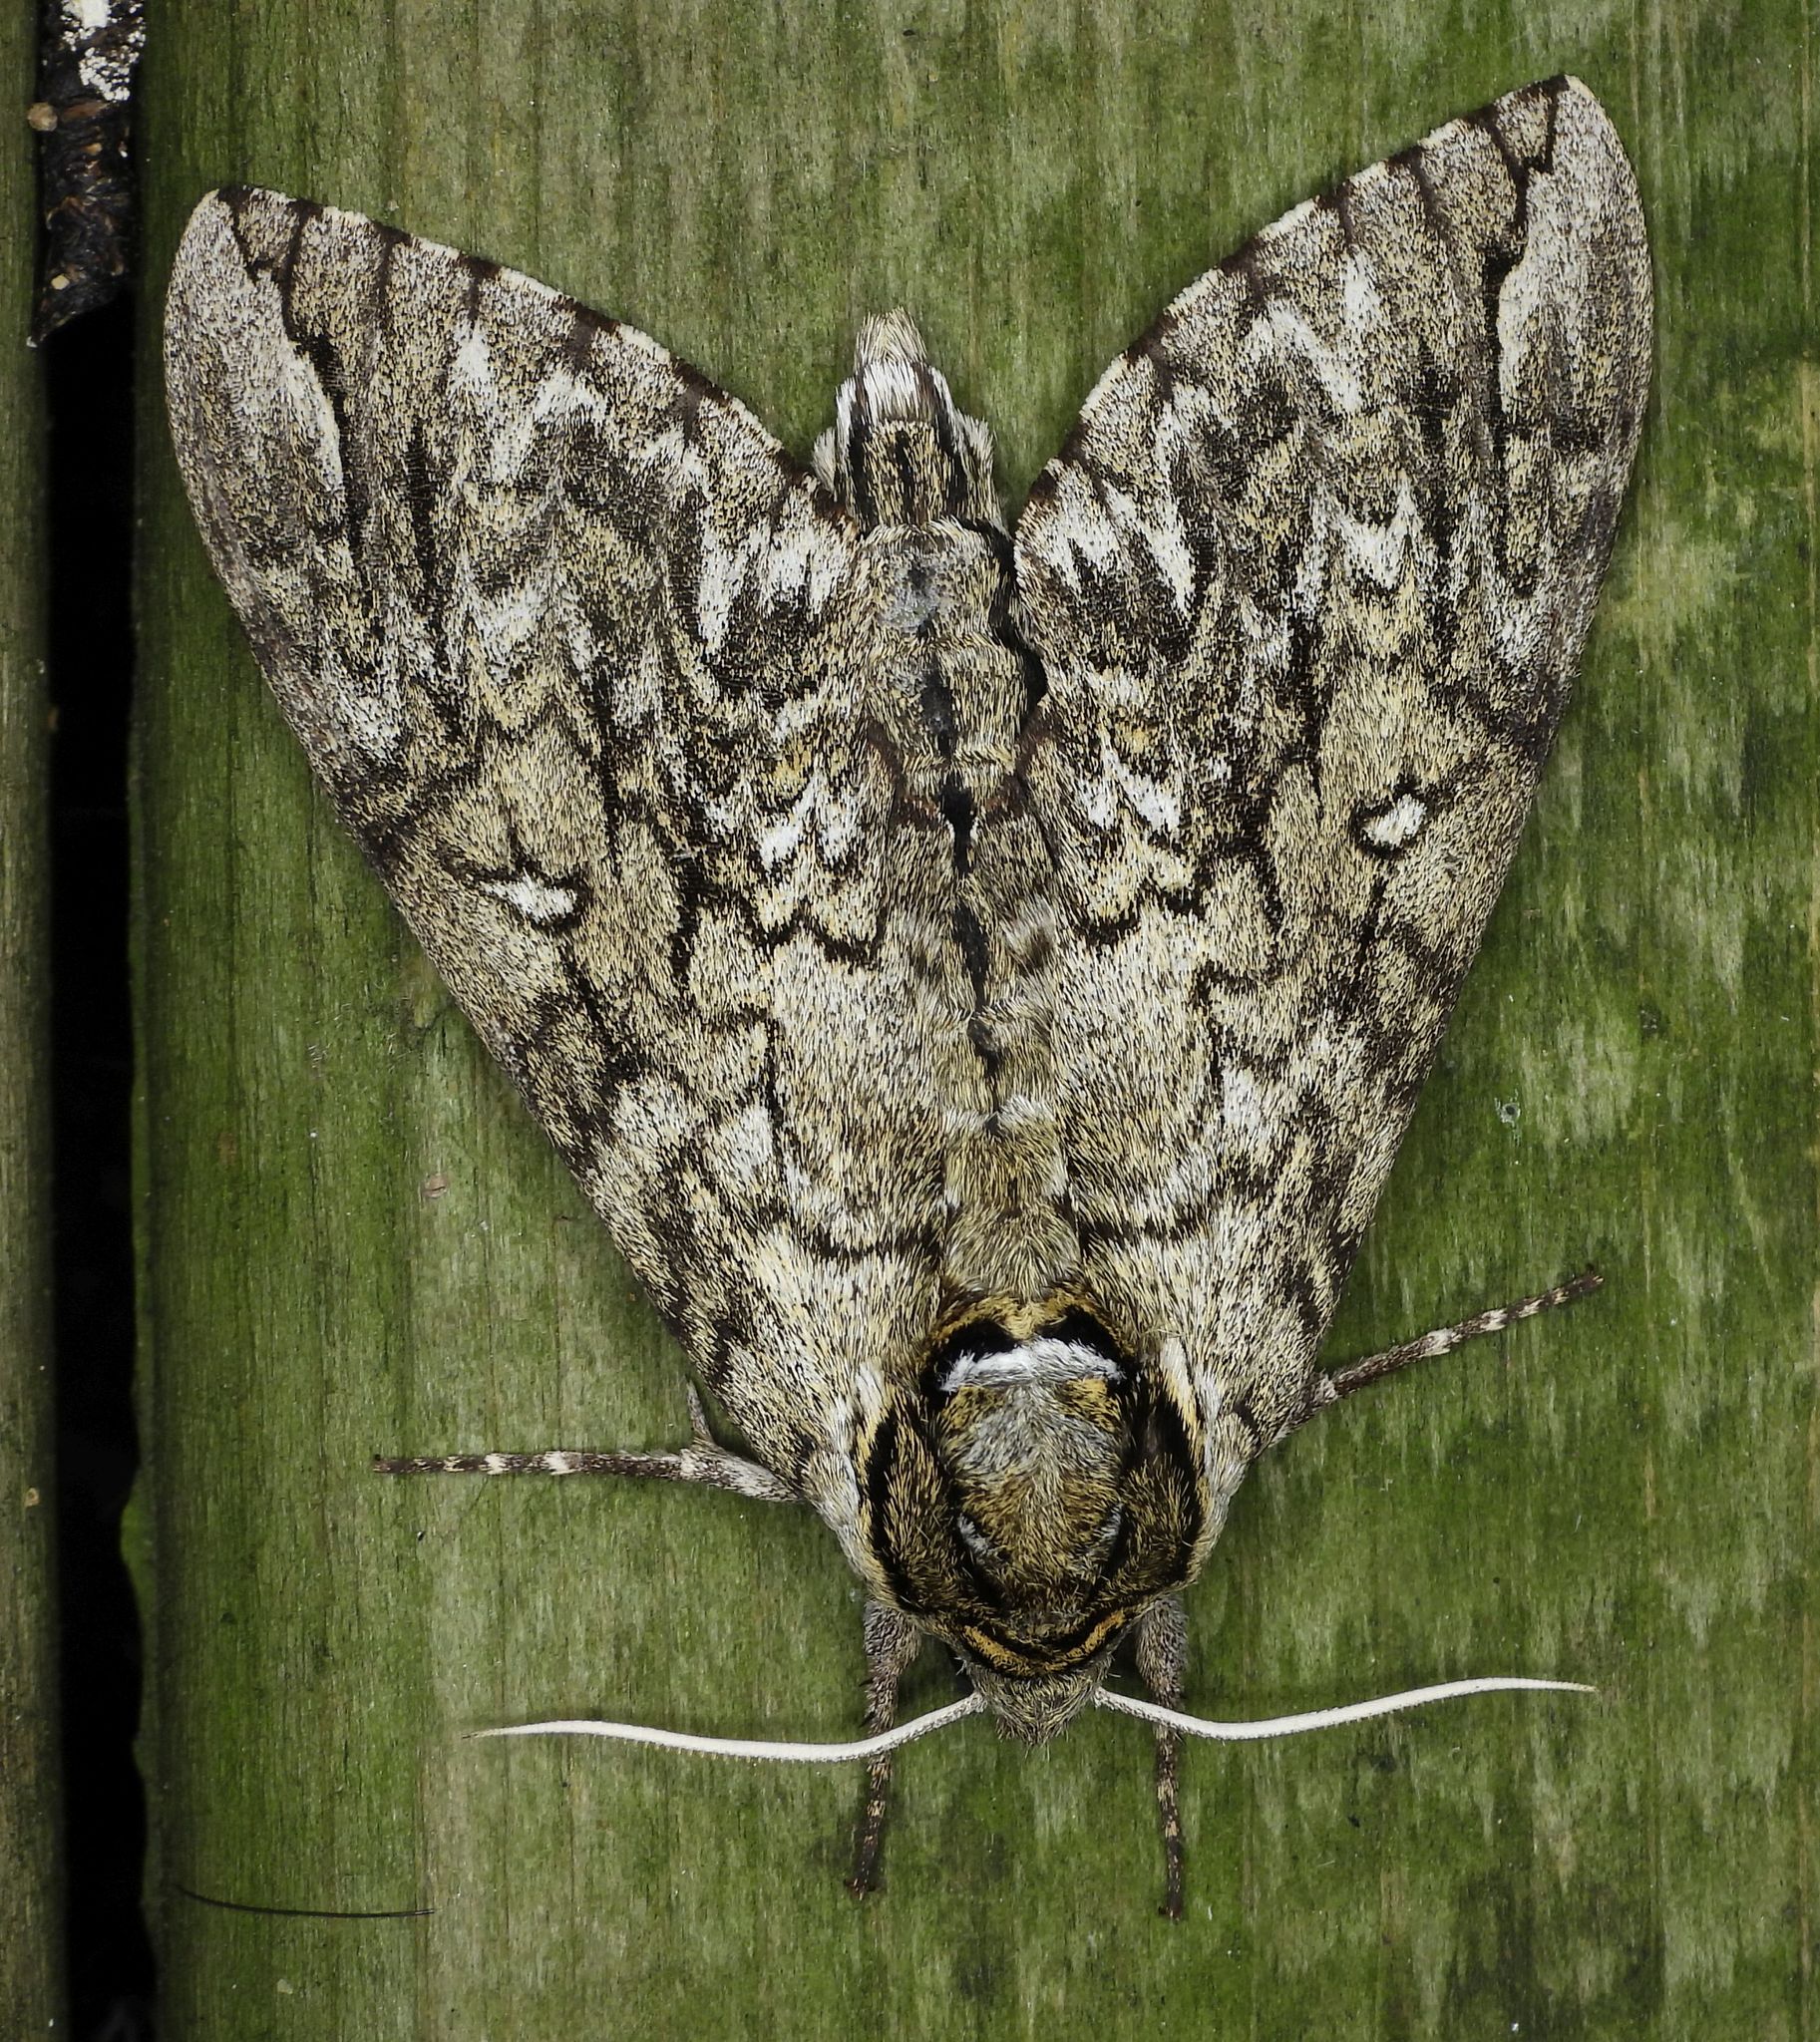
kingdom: Animalia
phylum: Arthropoda
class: Insecta
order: Lepidoptera
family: Sphingidae
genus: Ceratomia
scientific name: Ceratomia undulosa
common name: Waved sphinx
